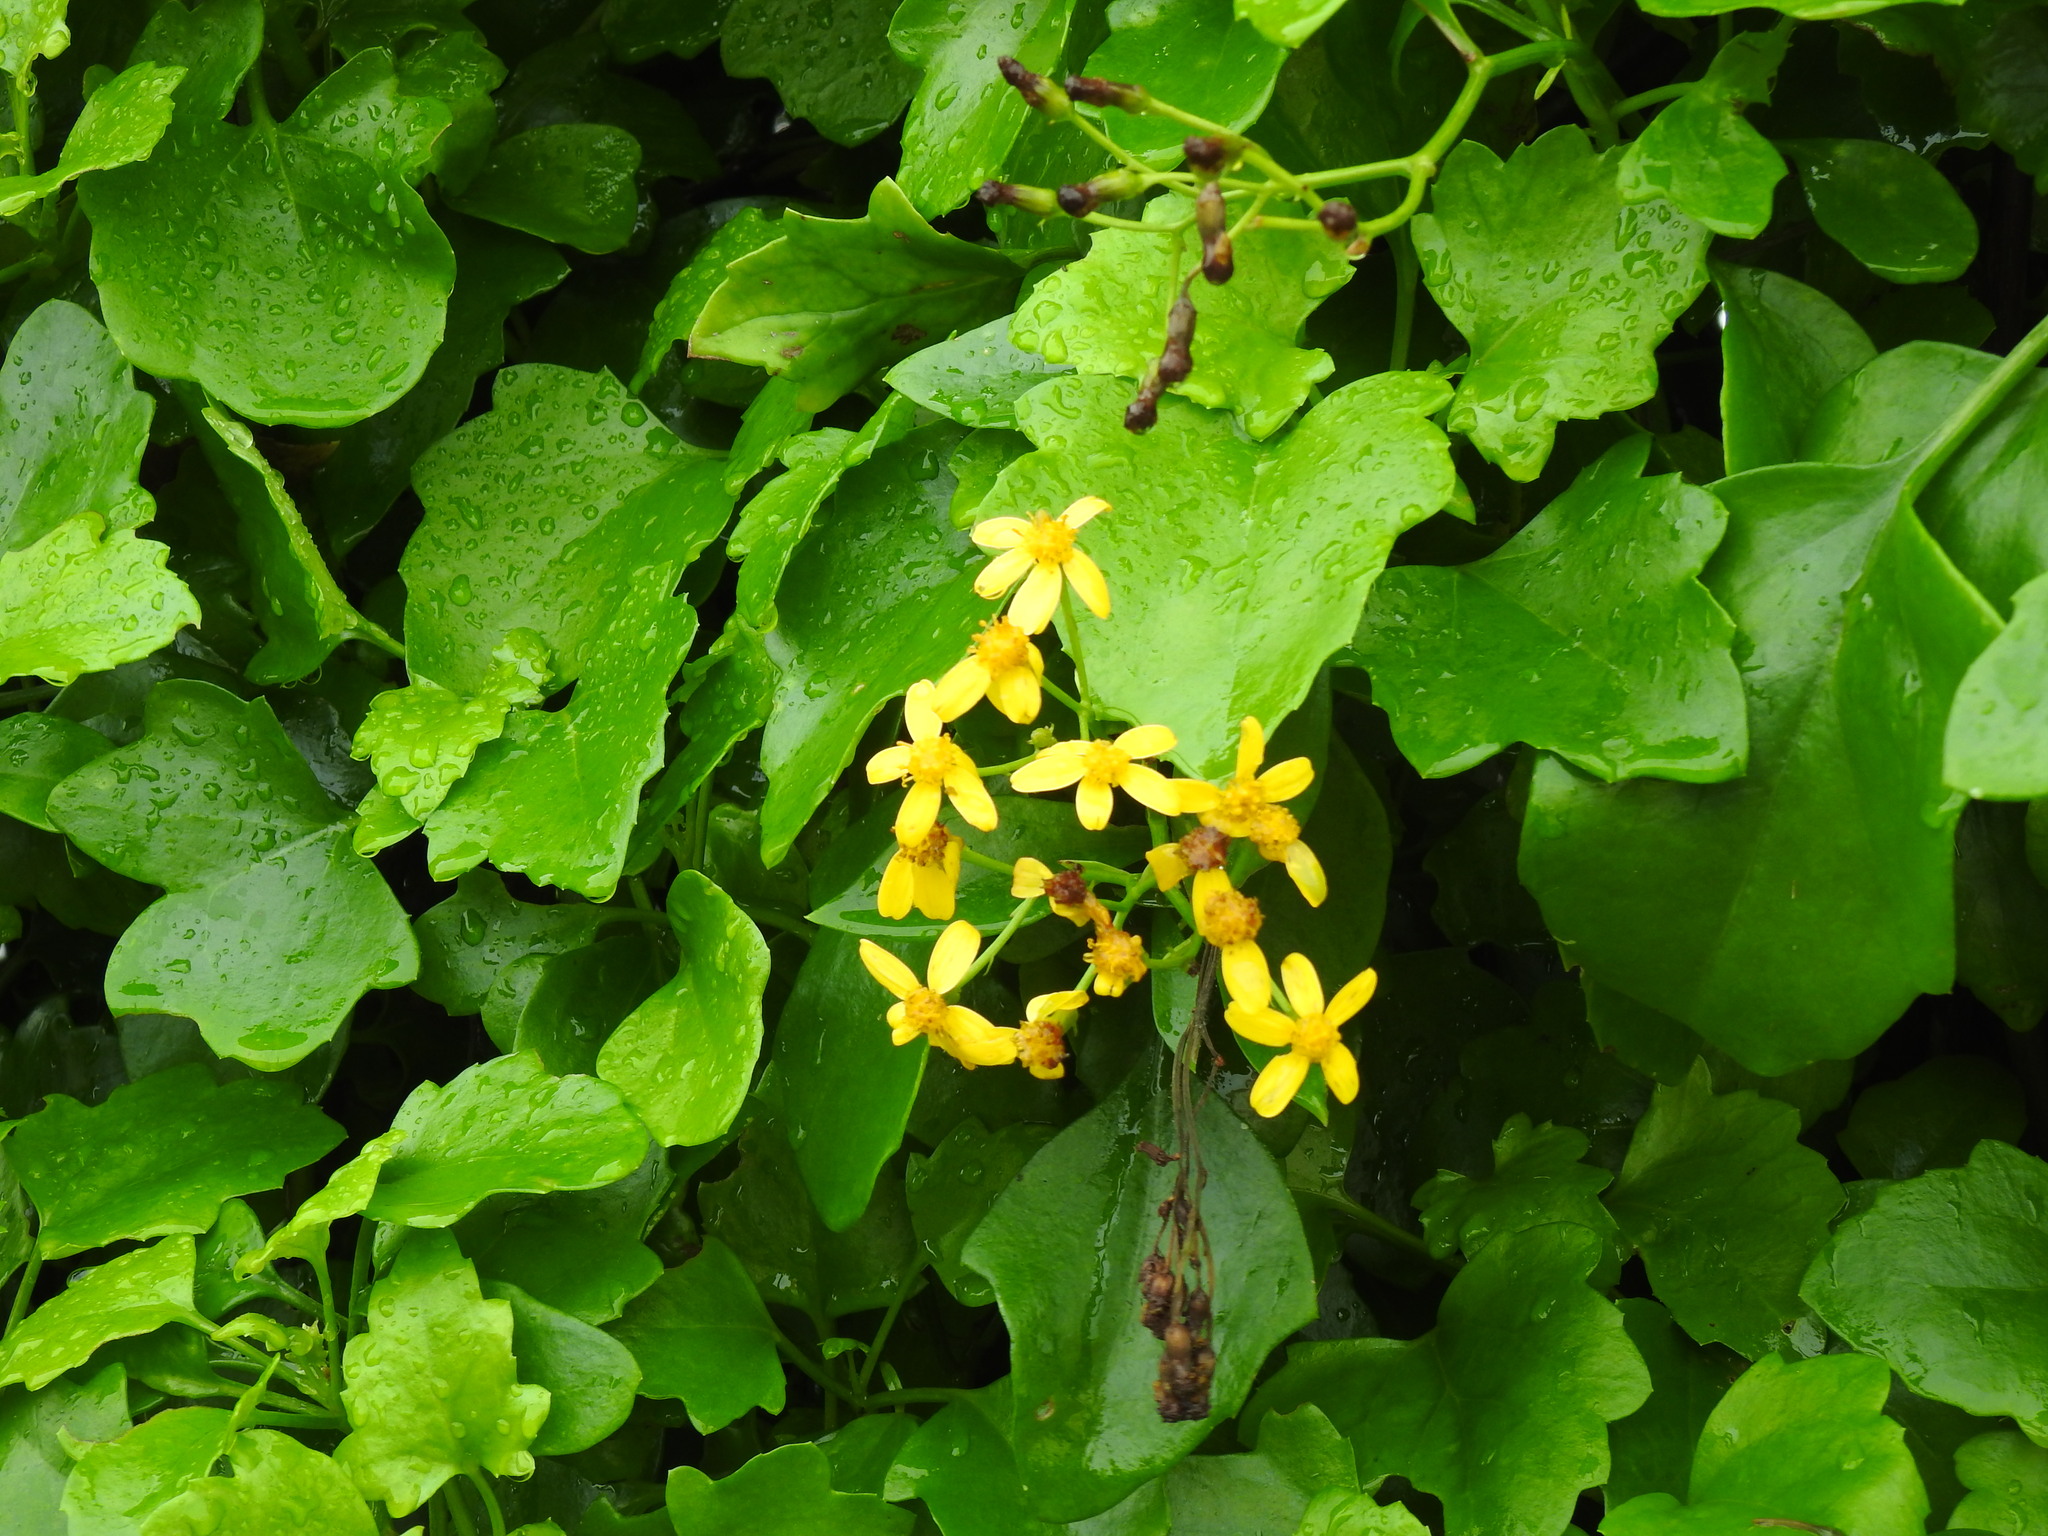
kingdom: Plantae
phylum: Tracheophyta
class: Magnoliopsida
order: Asterales
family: Asteraceae
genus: Senecio
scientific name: Senecio angulatus
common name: Climbing groundsel
